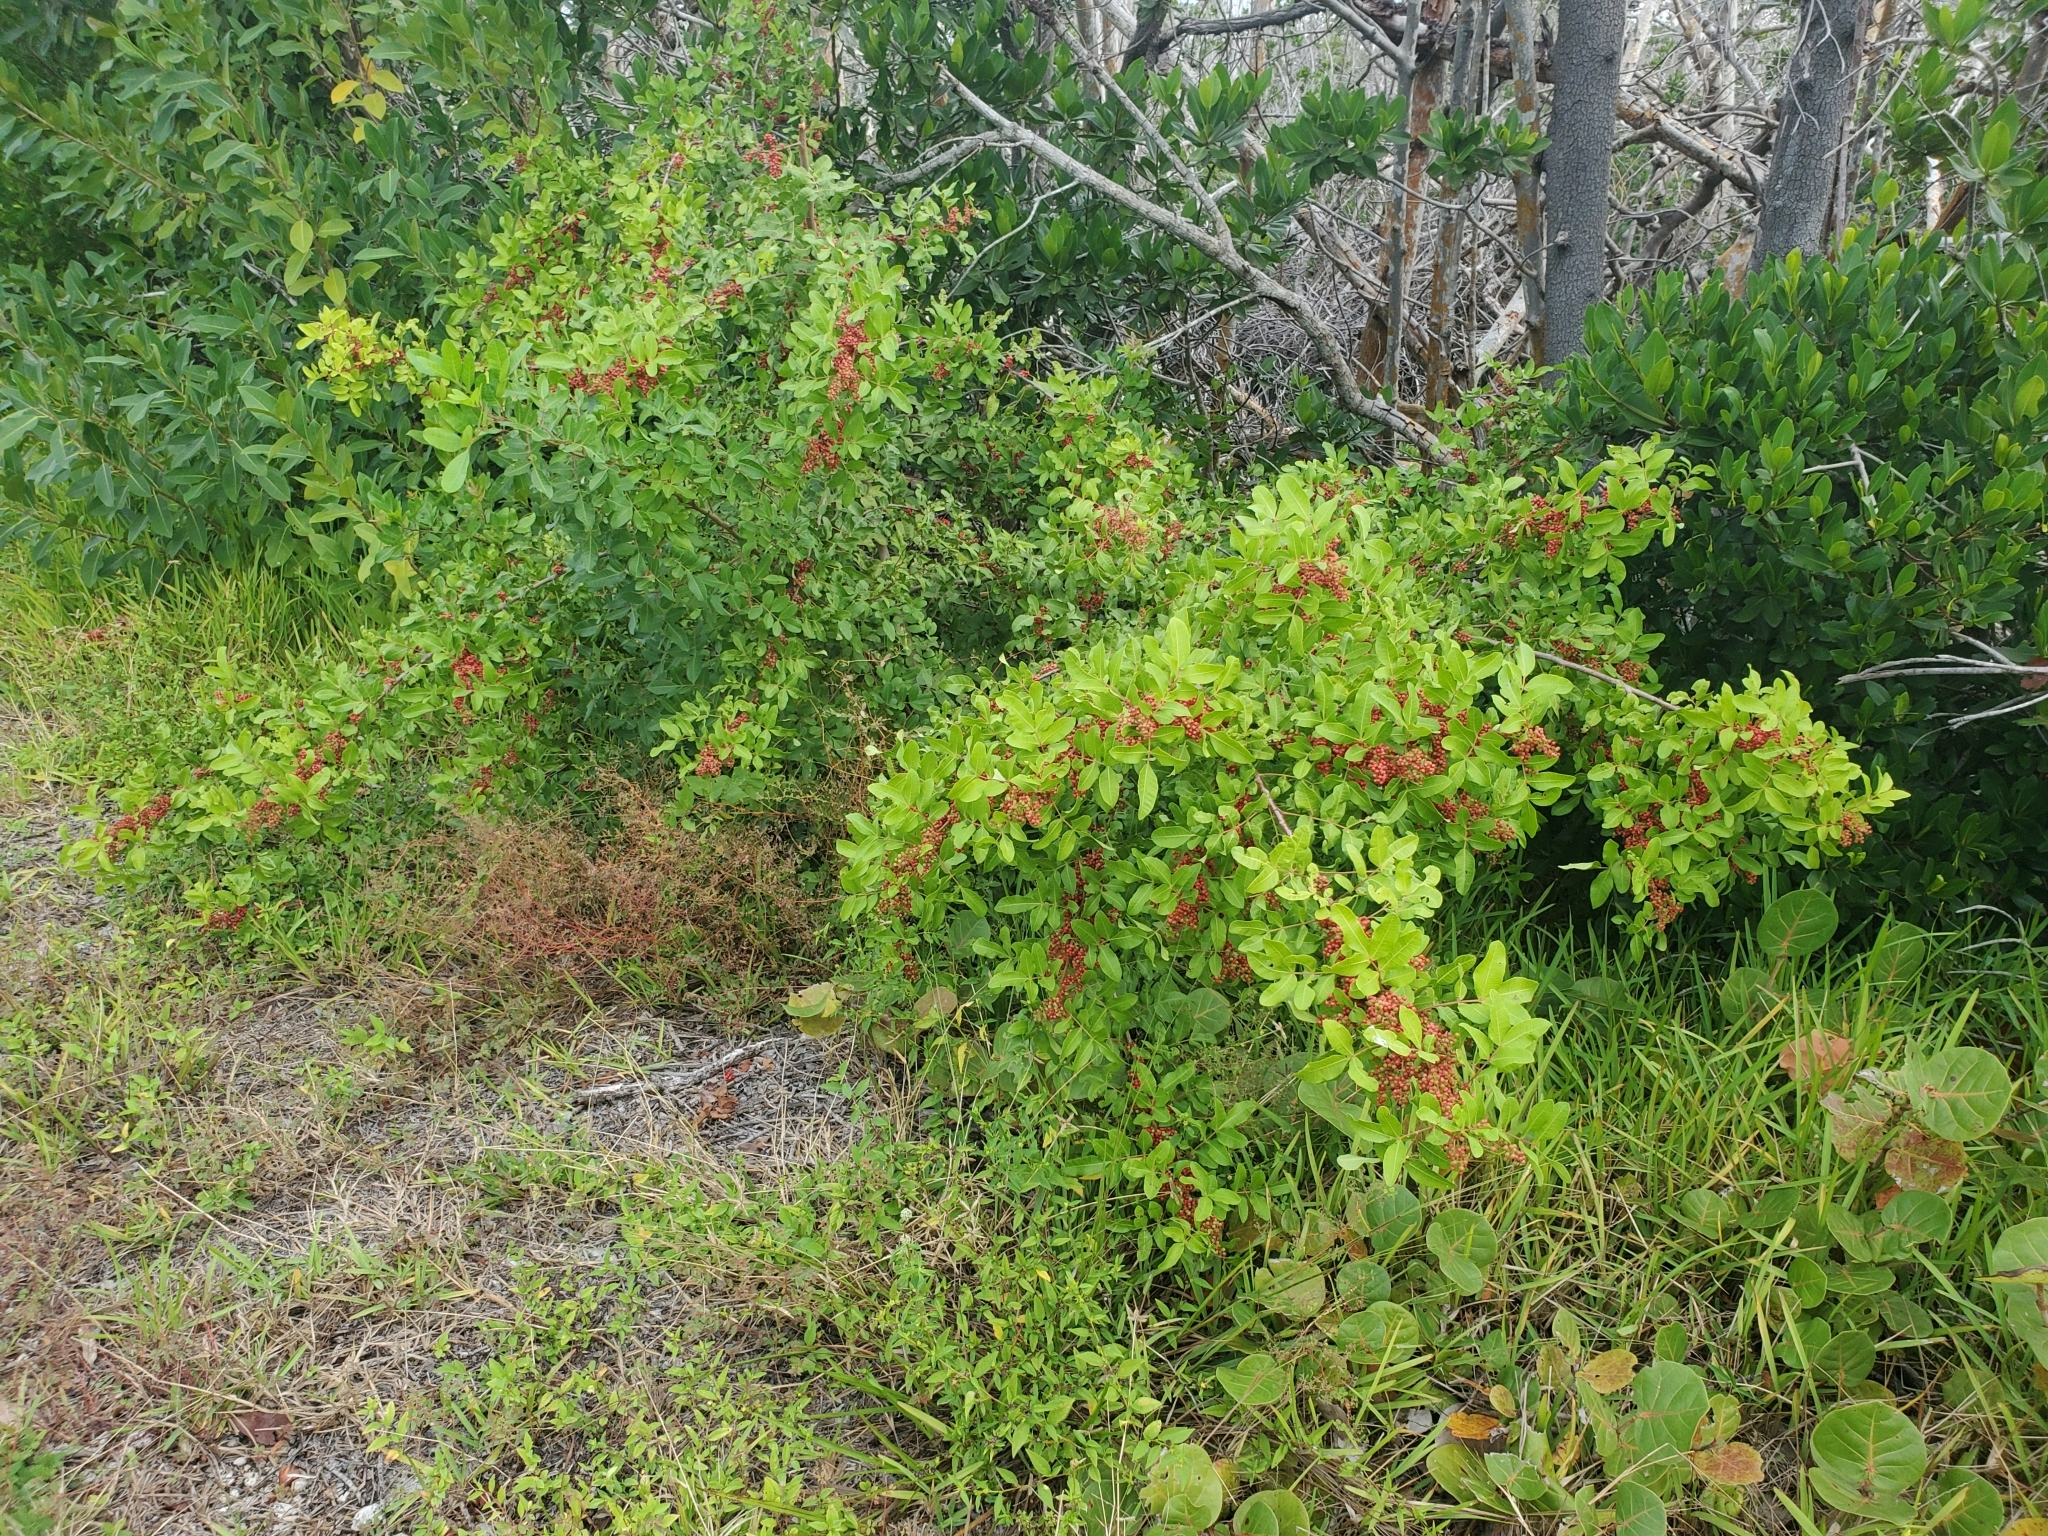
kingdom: Plantae
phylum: Tracheophyta
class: Magnoliopsida
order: Sapindales
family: Anacardiaceae
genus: Schinus
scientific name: Schinus terebinthifolia
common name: Brazilian peppertree
